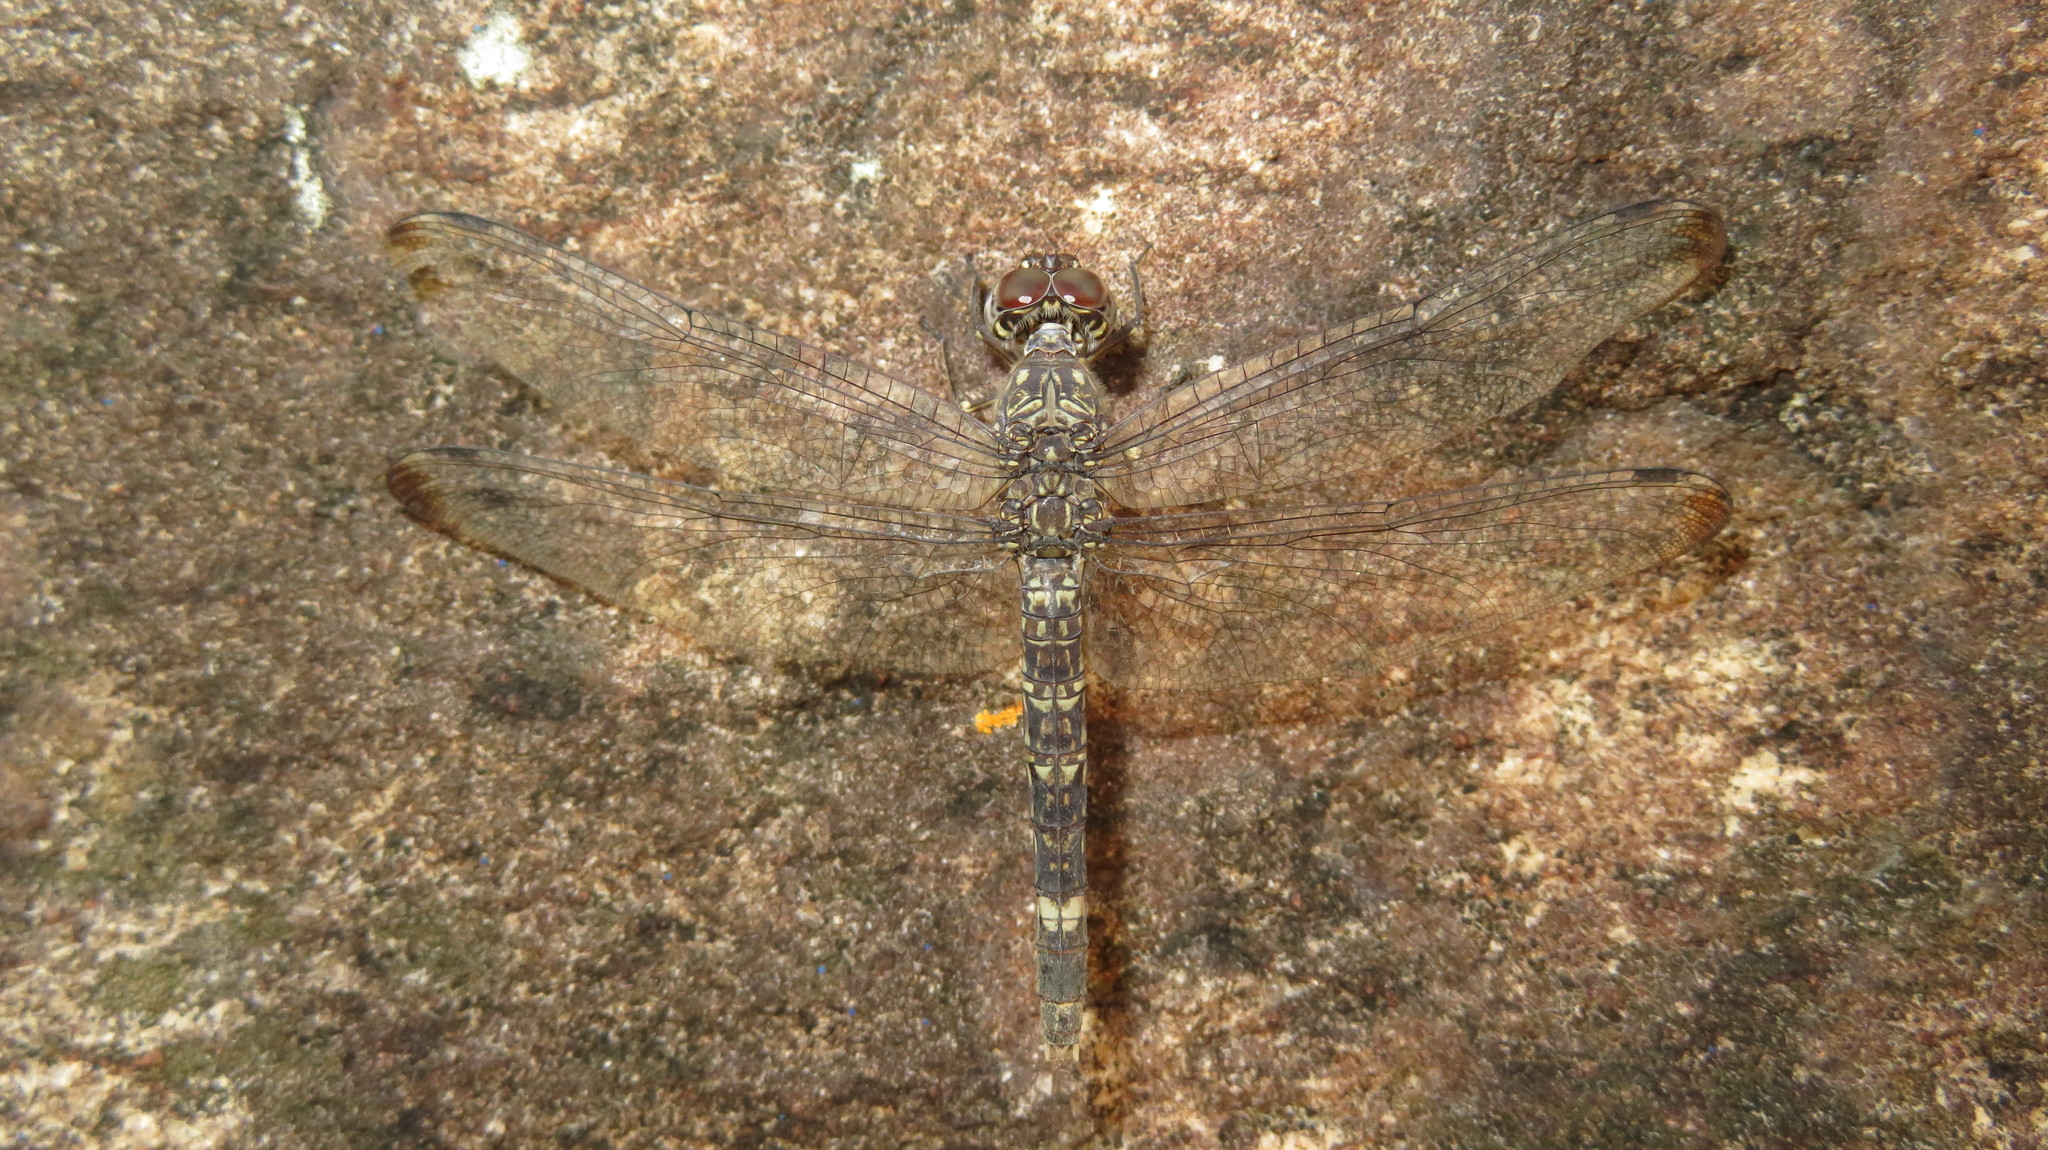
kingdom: Animalia
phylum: Arthropoda
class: Insecta
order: Odonata
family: Libellulidae
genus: Bradinopyga
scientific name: Bradinopyga cornuta
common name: Flecked wall-skimmer
